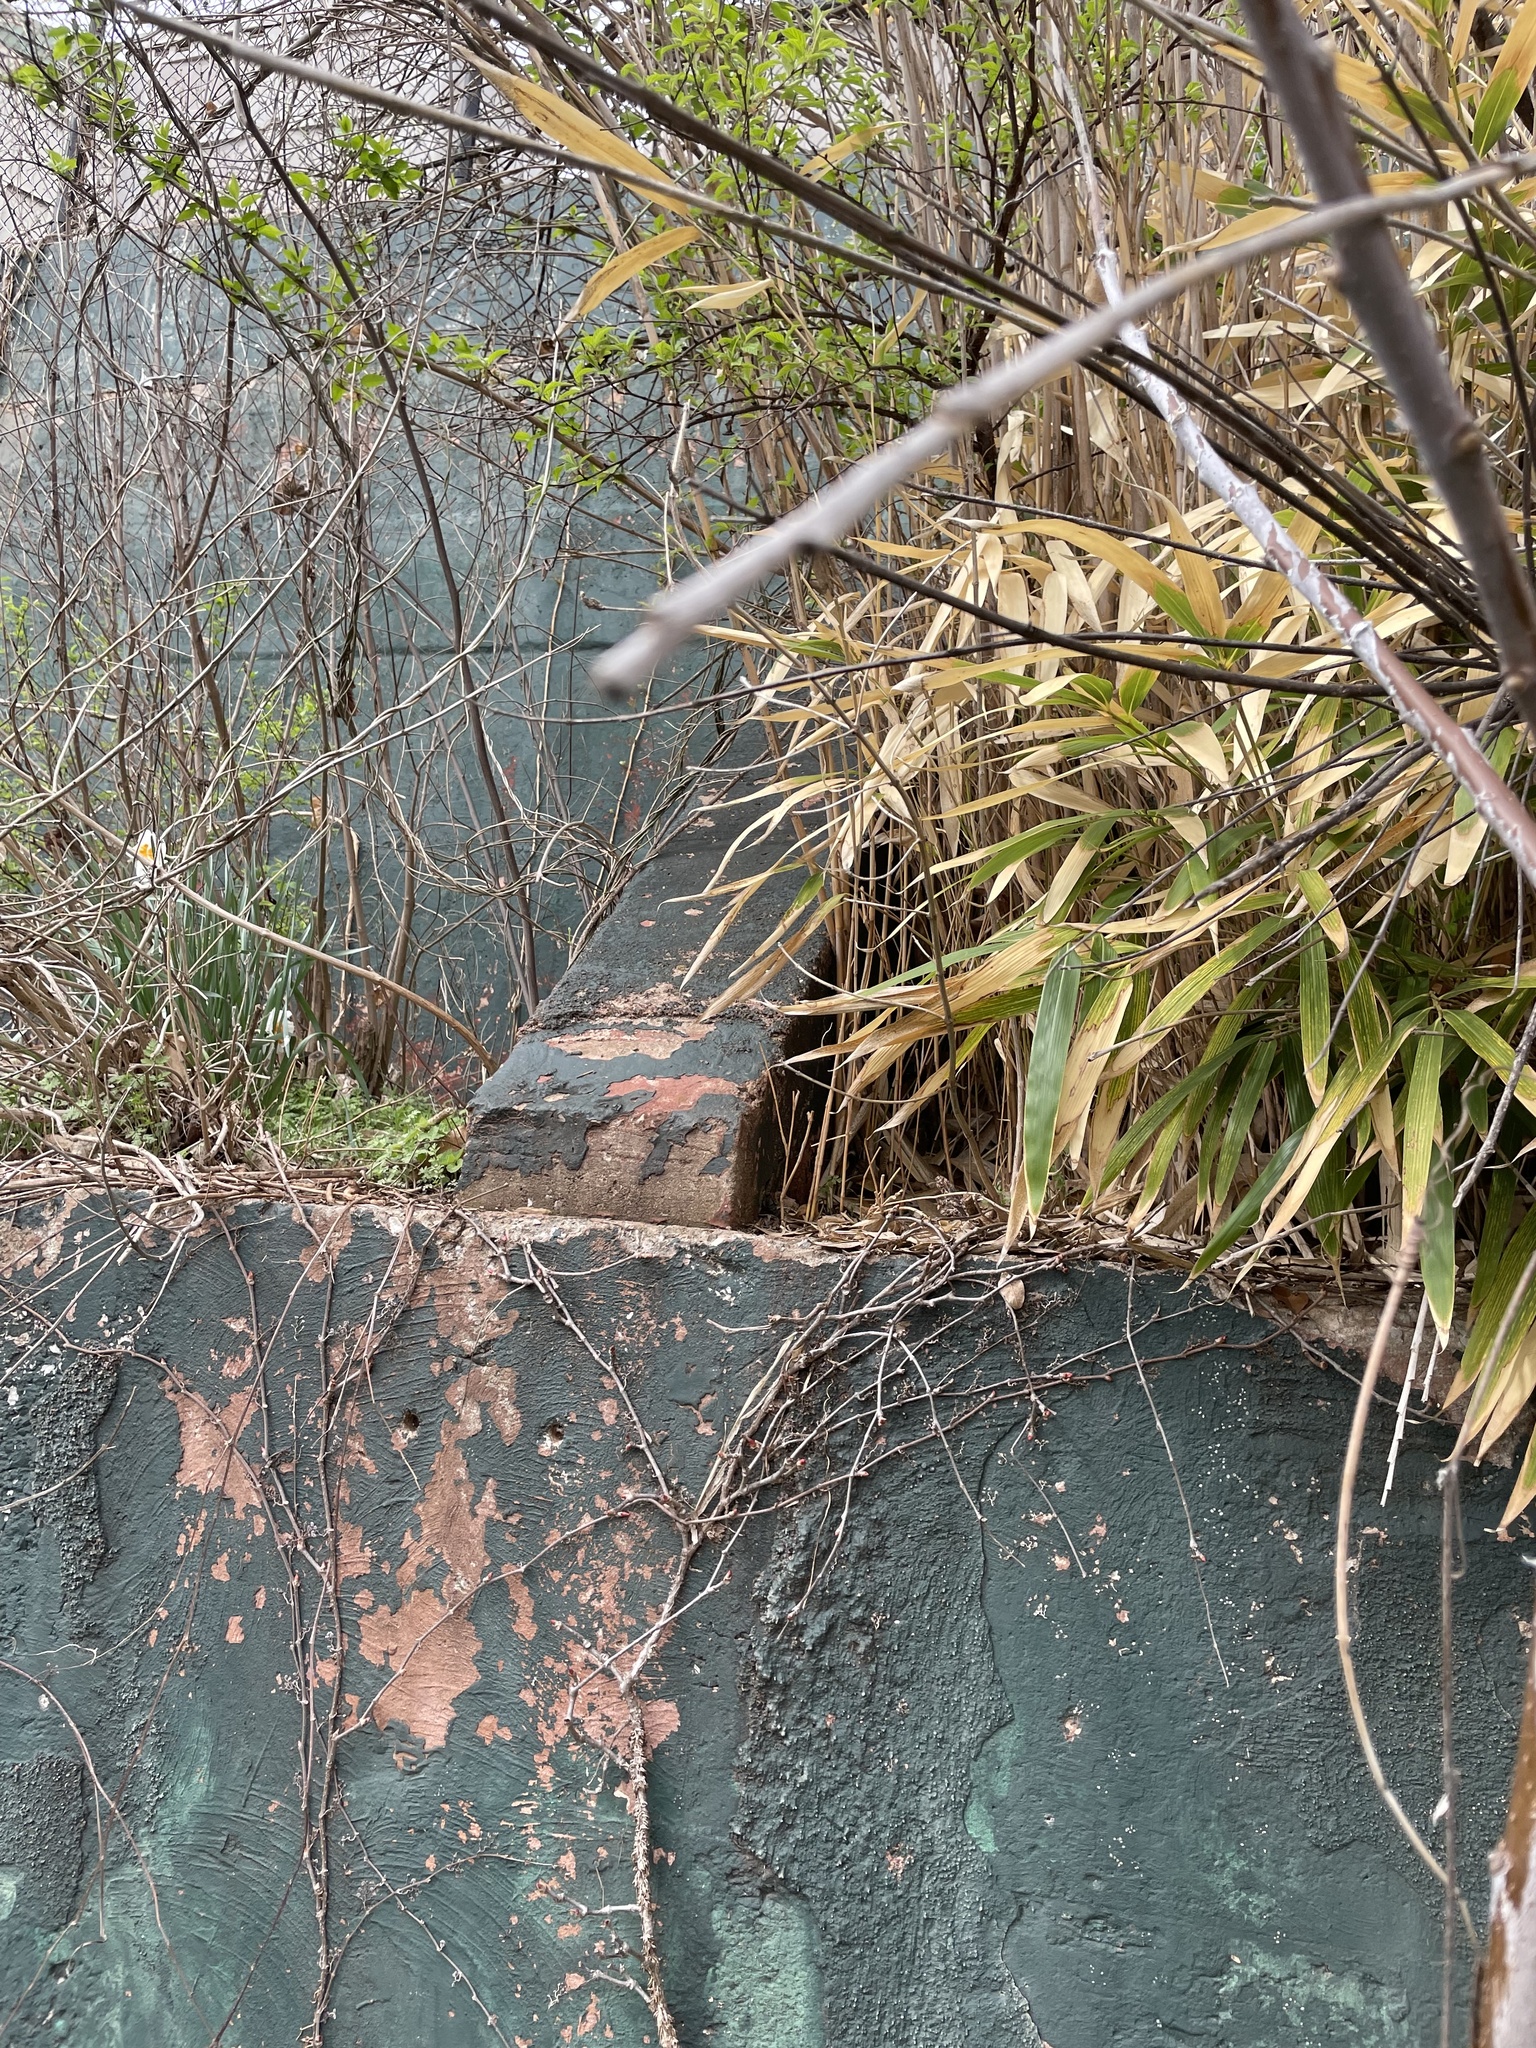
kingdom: Animalia
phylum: Arthropoda
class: Insecta
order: Lepidoptera
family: Lycaenidae
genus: Incisalia
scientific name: Incisalia henrici
